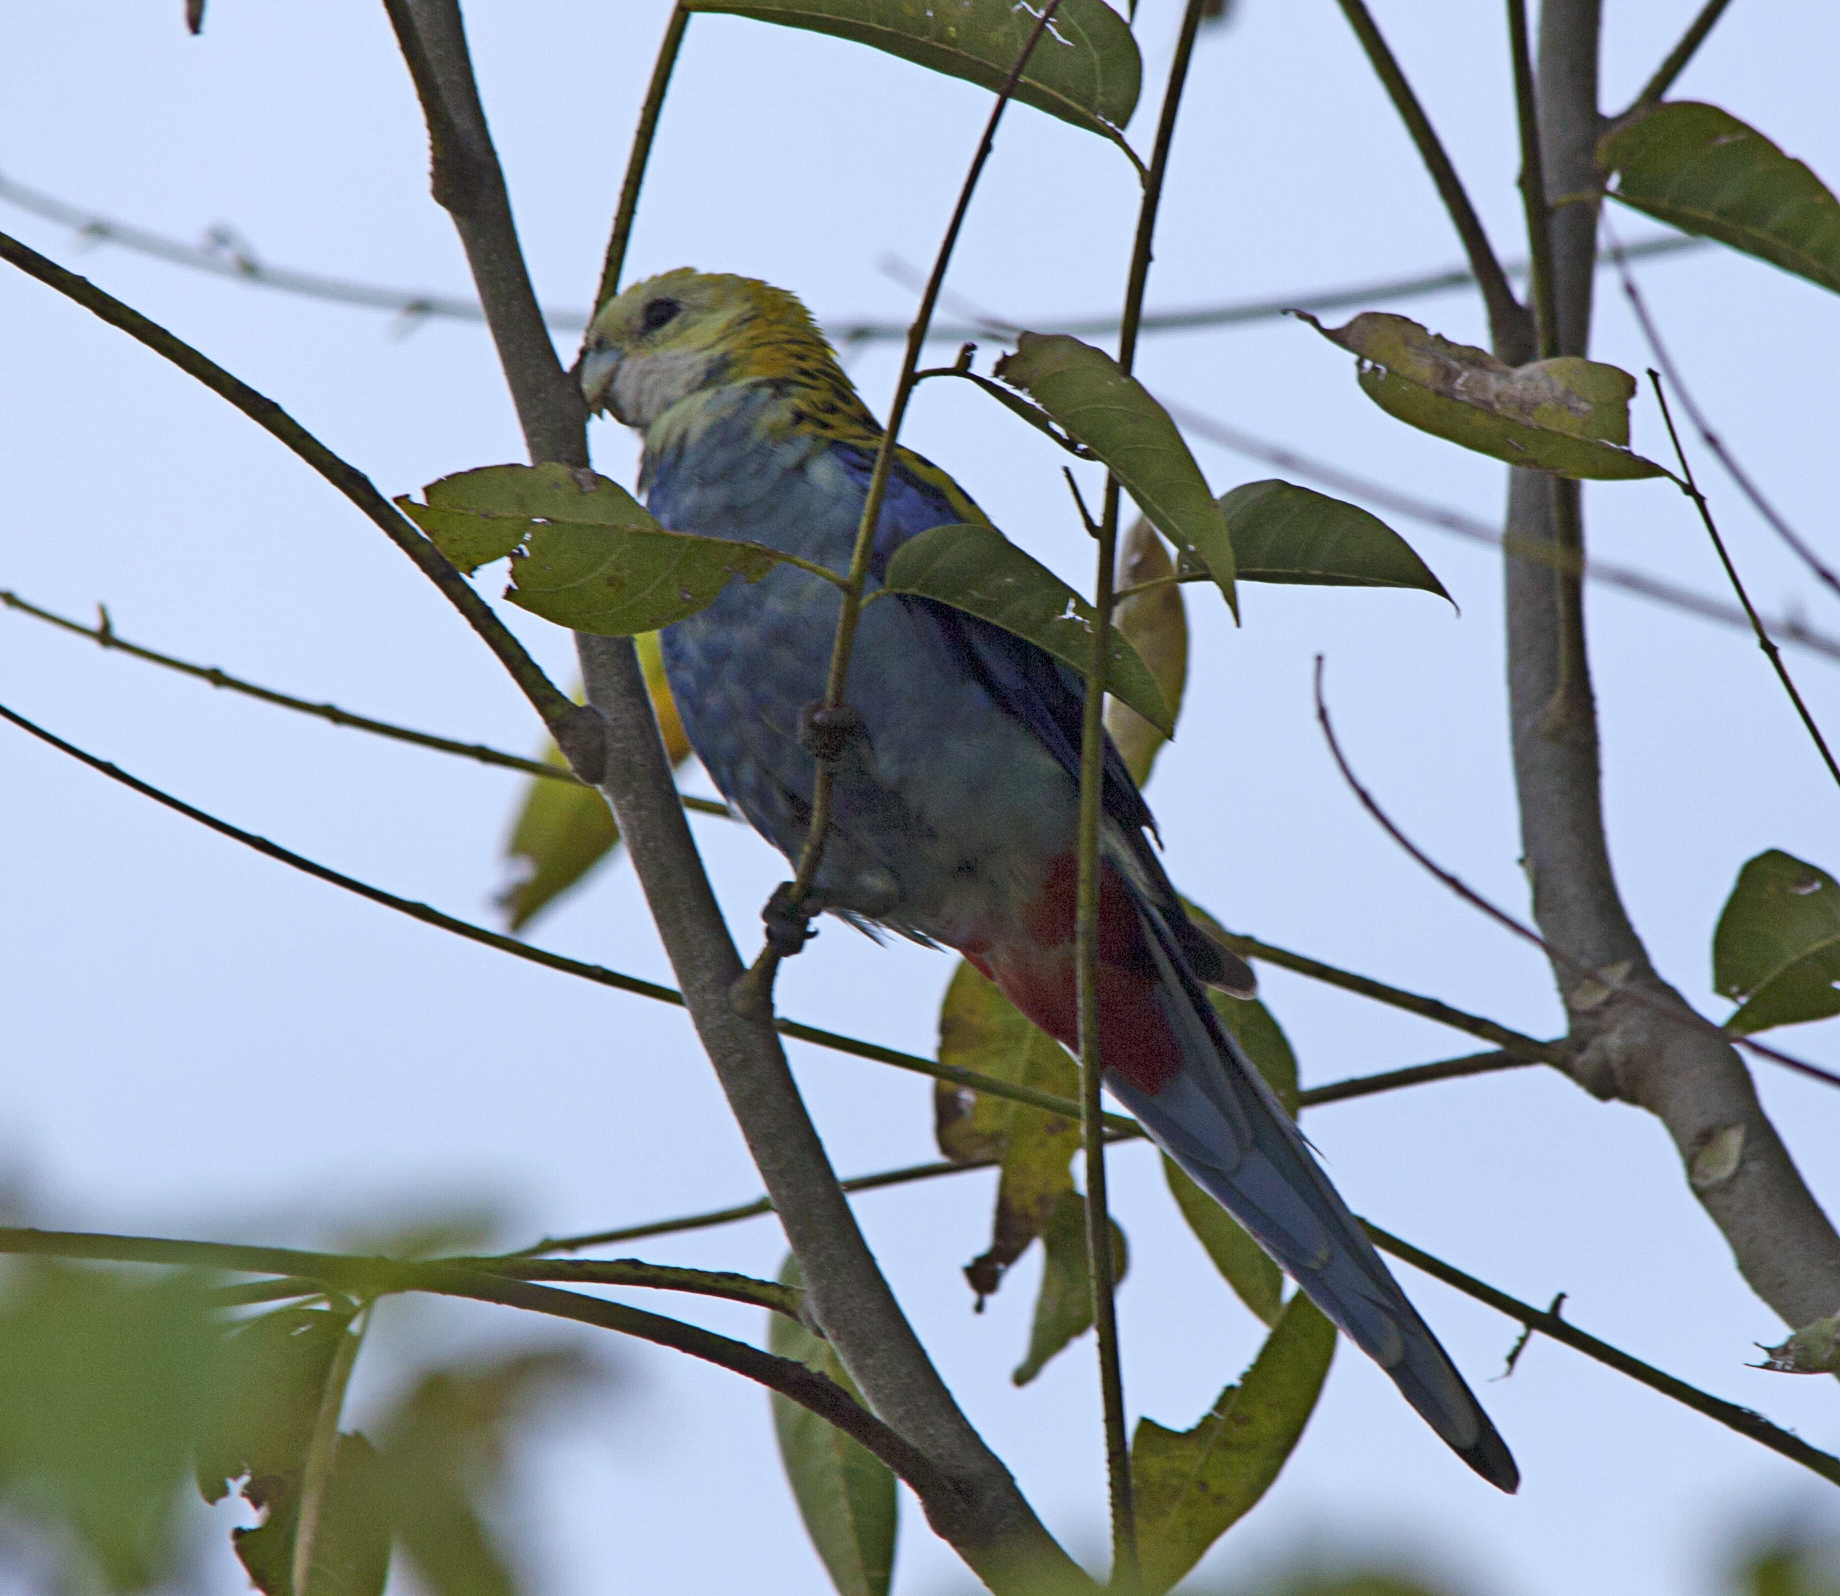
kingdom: Animalia
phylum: Chordata
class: Aves
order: Psittaciformes
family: Psittacidae
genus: Platycercus
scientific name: Platycercus adscitus
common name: Pale-headed rosella
